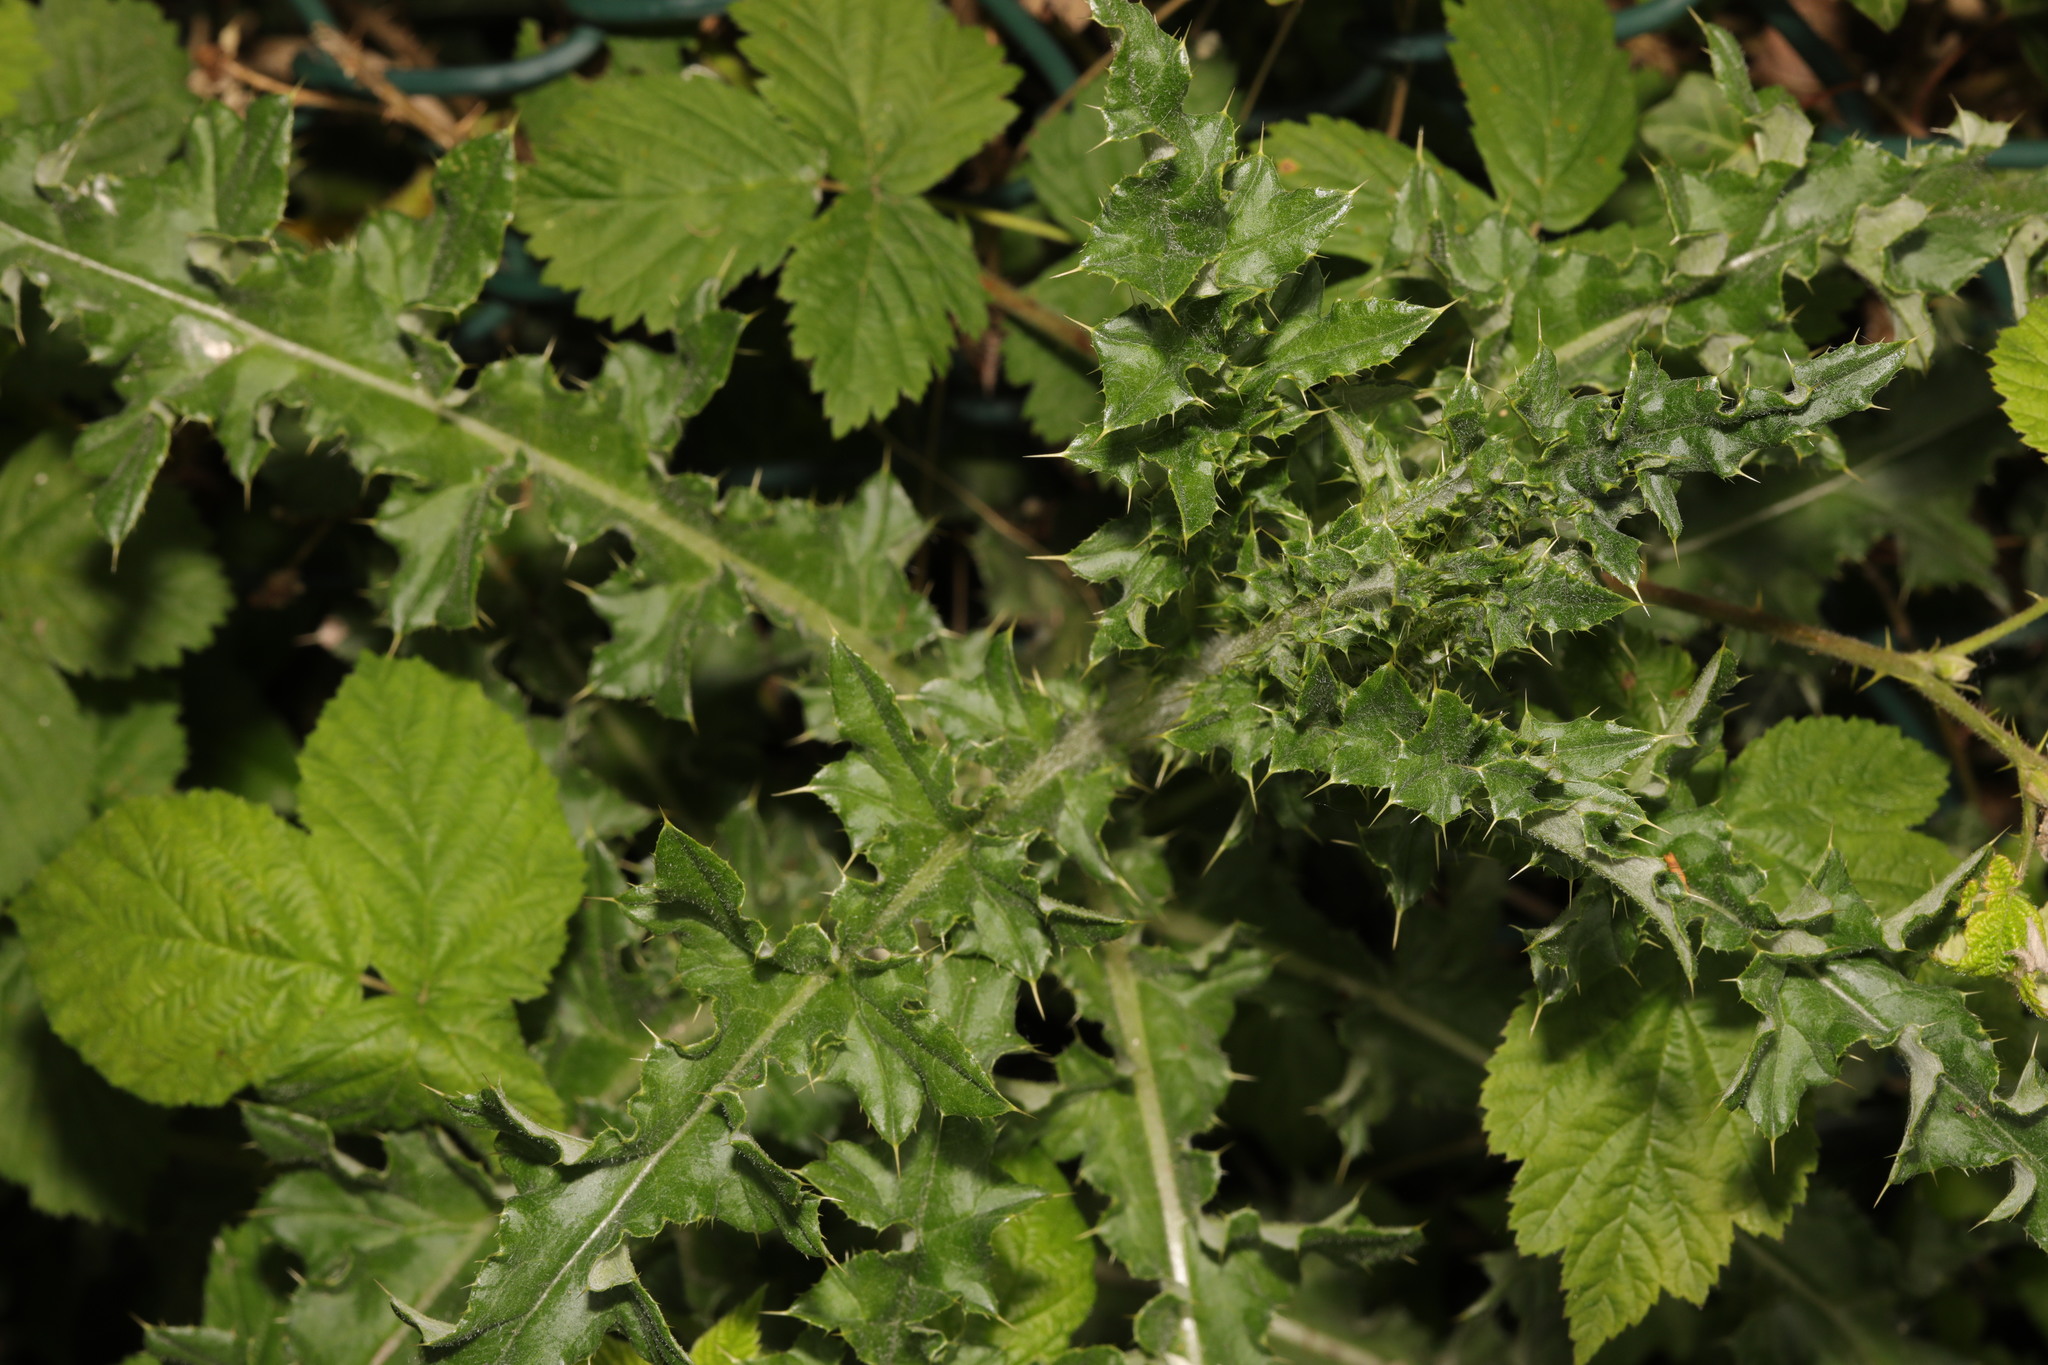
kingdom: Plantae
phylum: Tracheophyta
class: Magnoliopsida
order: Asterales
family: Asteraceae
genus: Cirsium
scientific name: Cirsium arvense
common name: Creeping thistle
